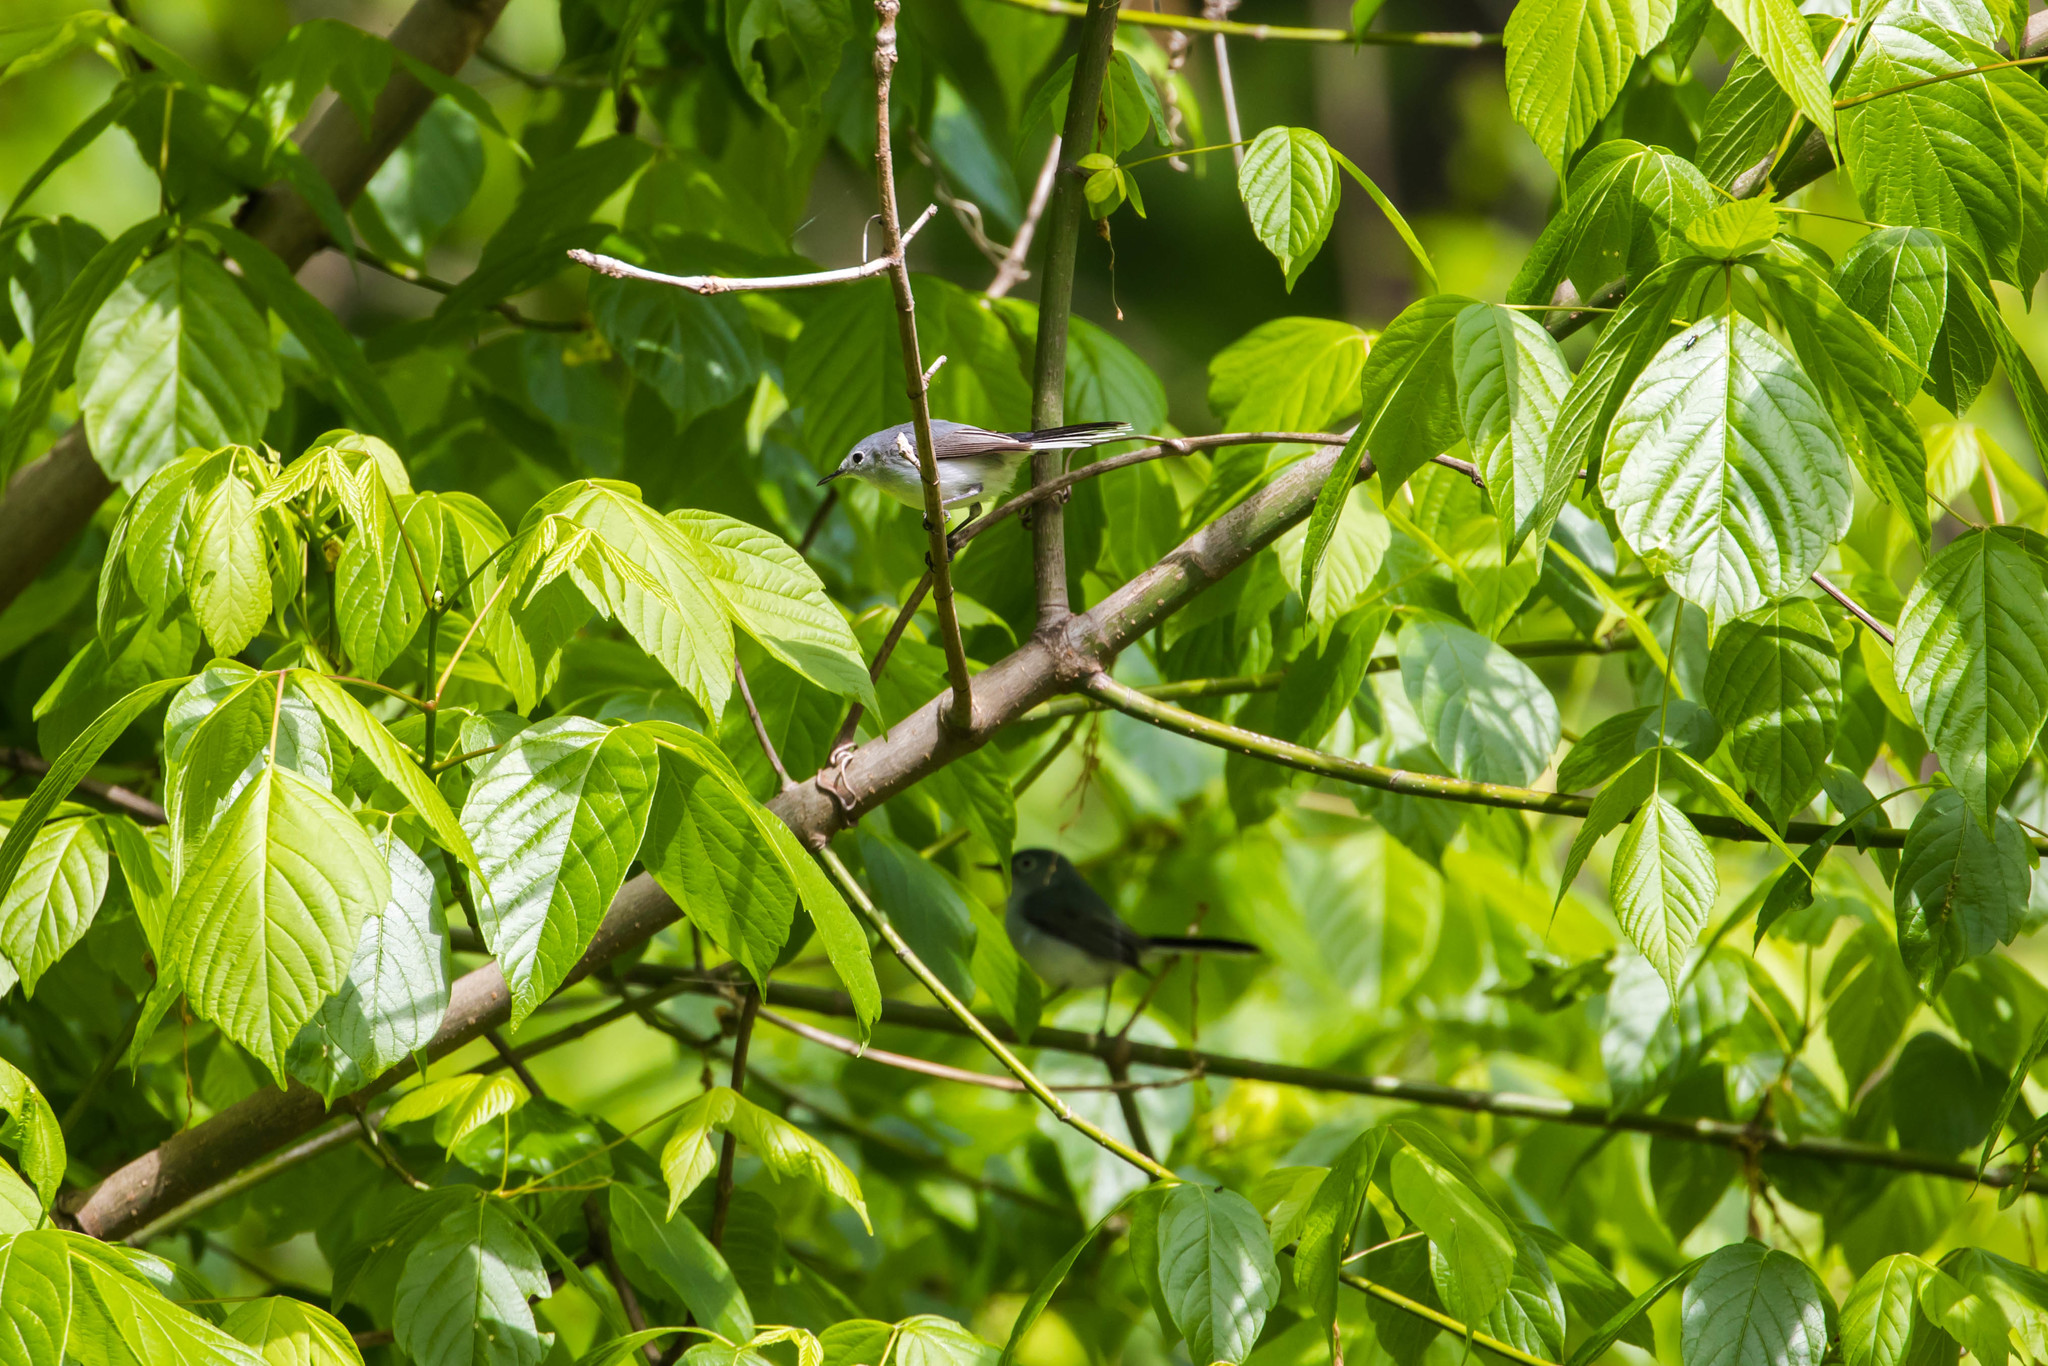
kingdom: Animalia
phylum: Chordata
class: Aves
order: Passeriformes
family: Polioptilidae
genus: Polioptila
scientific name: Polioptila caerulea
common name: Blue-gray gnatcatcher
